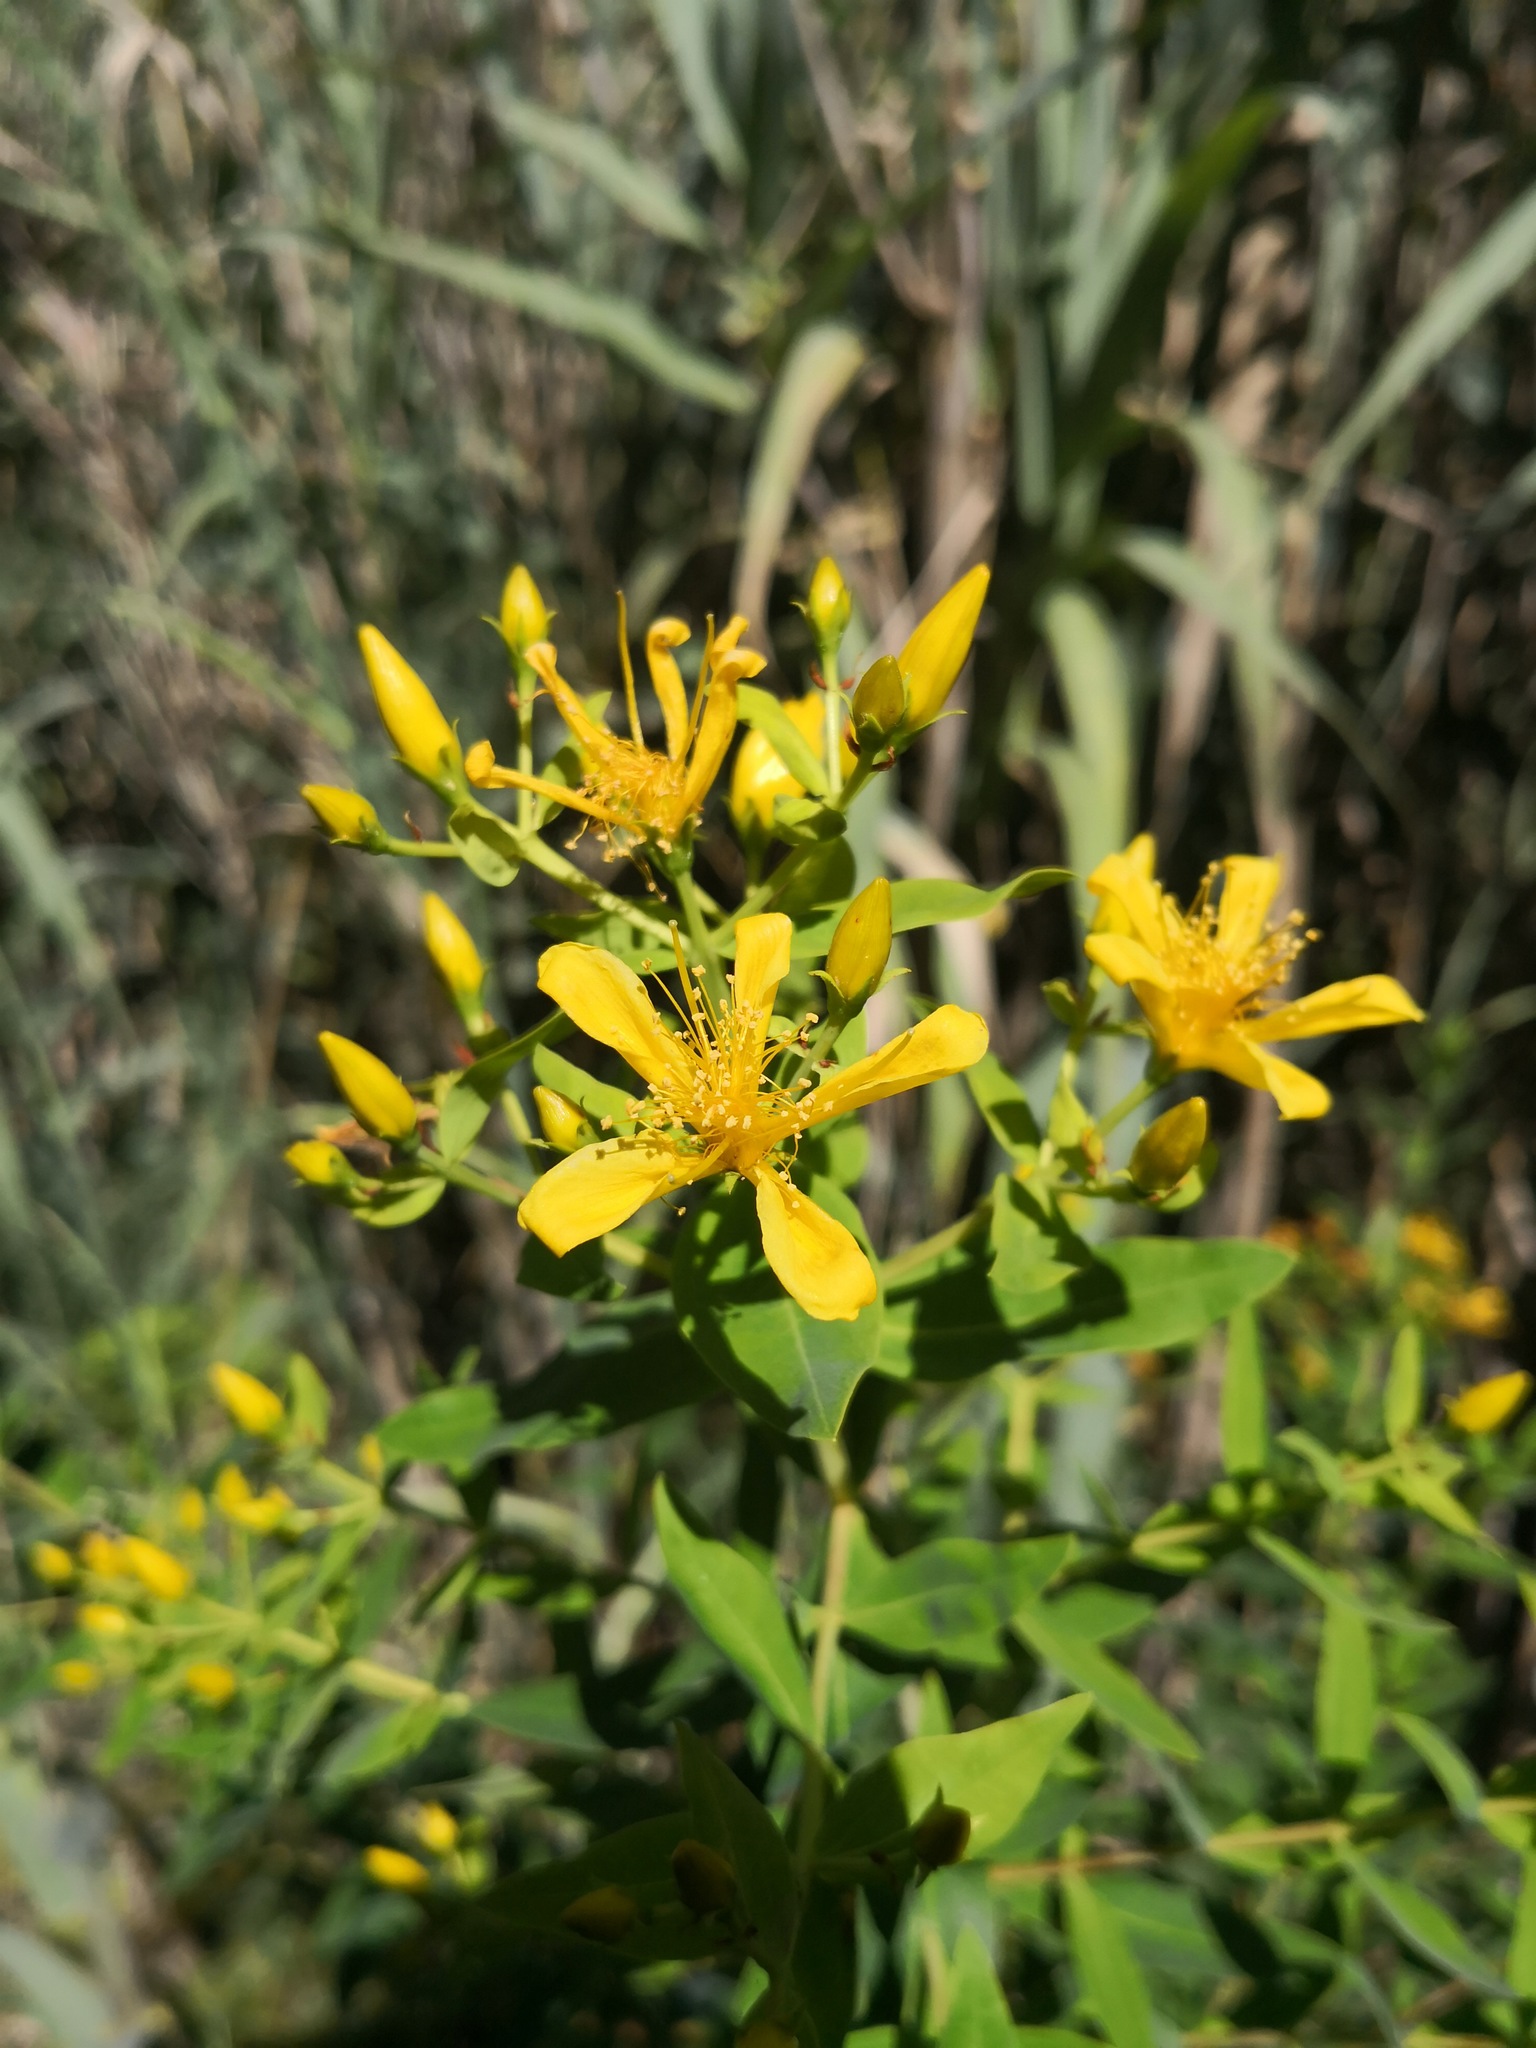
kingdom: Plantae
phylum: Tracheophyta
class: Magnoliopsida
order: Malpighiales
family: Hypericaceae
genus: Hypericum
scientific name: Hypericum grandifolium
